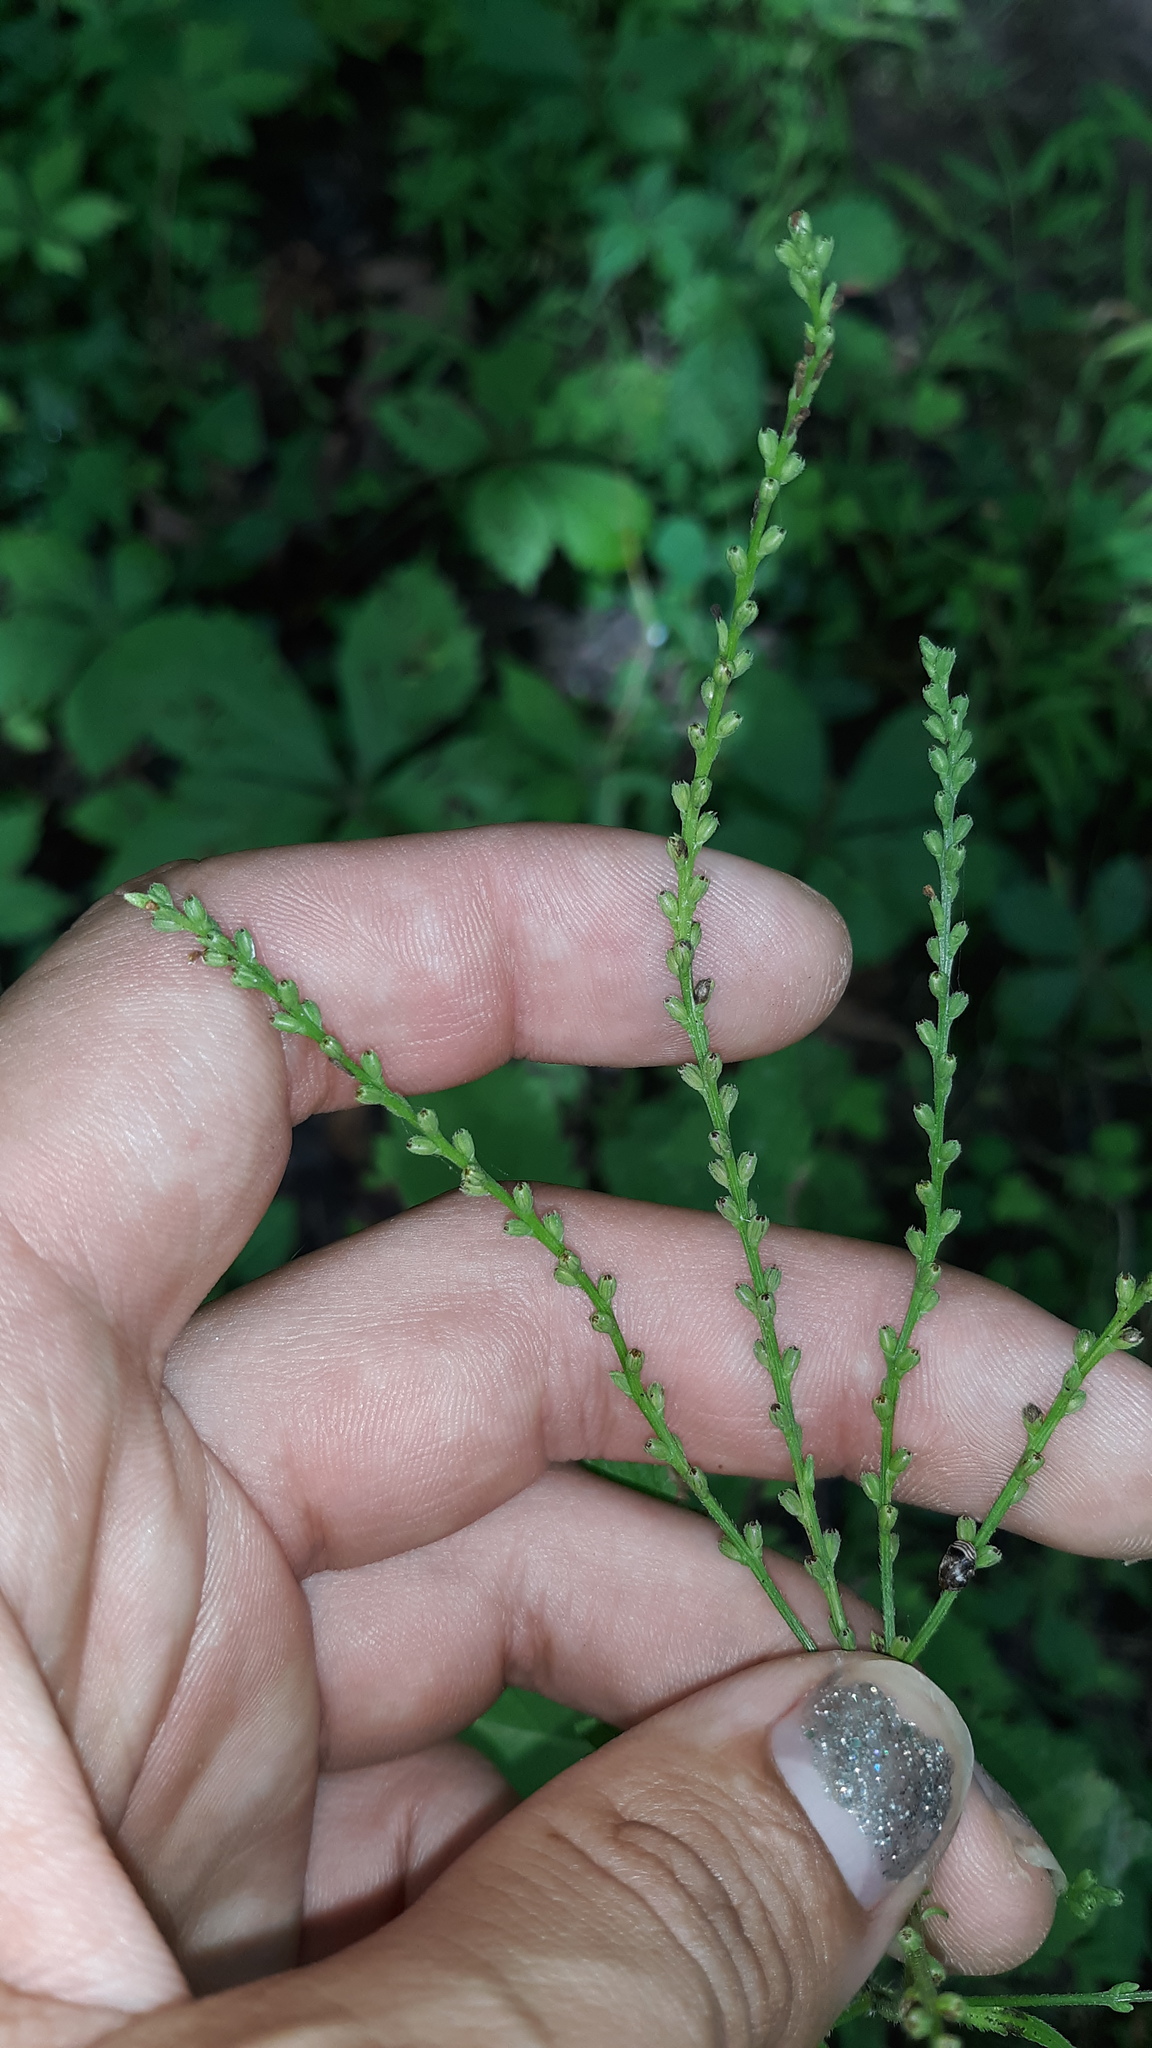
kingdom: Plantae
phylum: Tracheophyta
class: Magnoliopsida
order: Lamiales
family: Verbenaceae
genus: Verbena
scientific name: Verbena urticifolia
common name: Nettle-leaved vervain
